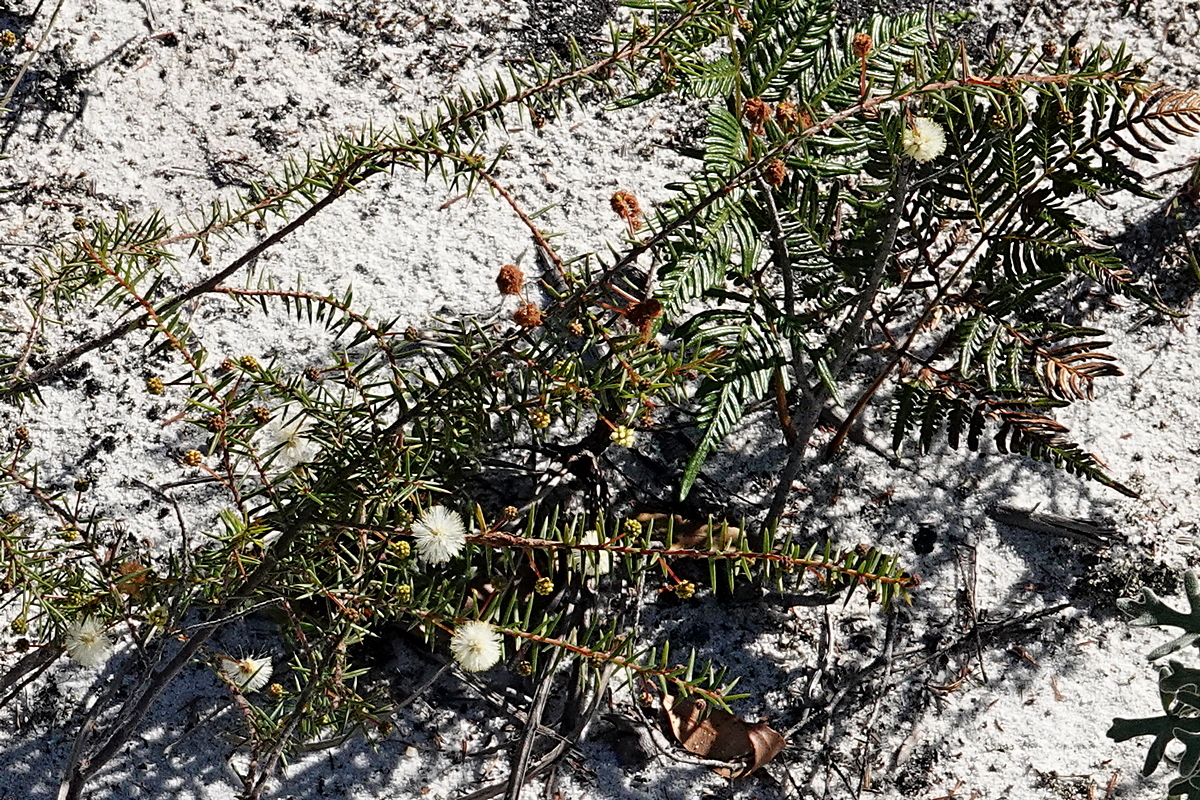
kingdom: Plantae
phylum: Tracheophyta
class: Magnoliopsida
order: Fabales
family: Fabaceae
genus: Acacia
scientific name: Acacia ulicifolia
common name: Juniper wattle
